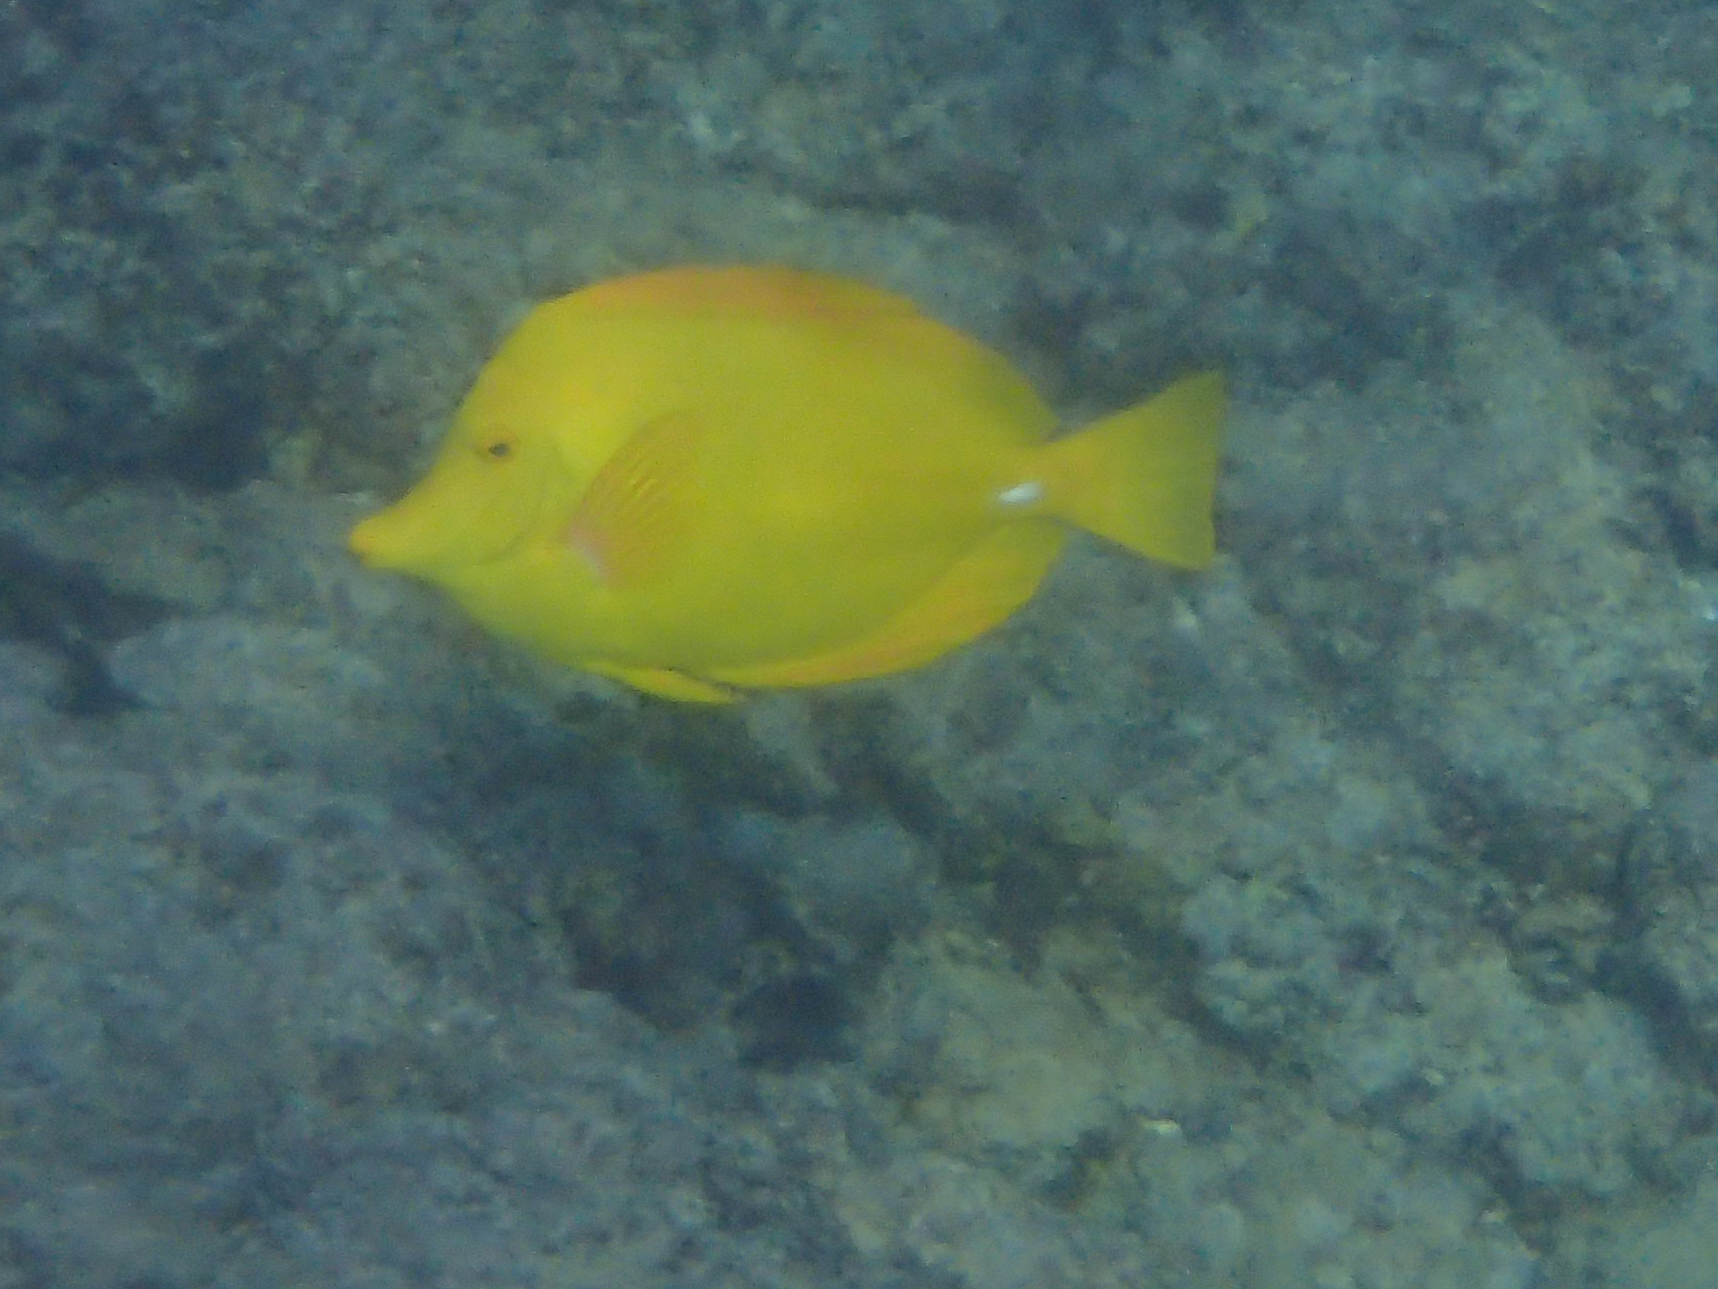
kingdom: Animalia
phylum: Chordata
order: Perciformes
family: Acanthuridae
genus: Zebrasoma
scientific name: Zebrasoma flavescens
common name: Yellow tang
